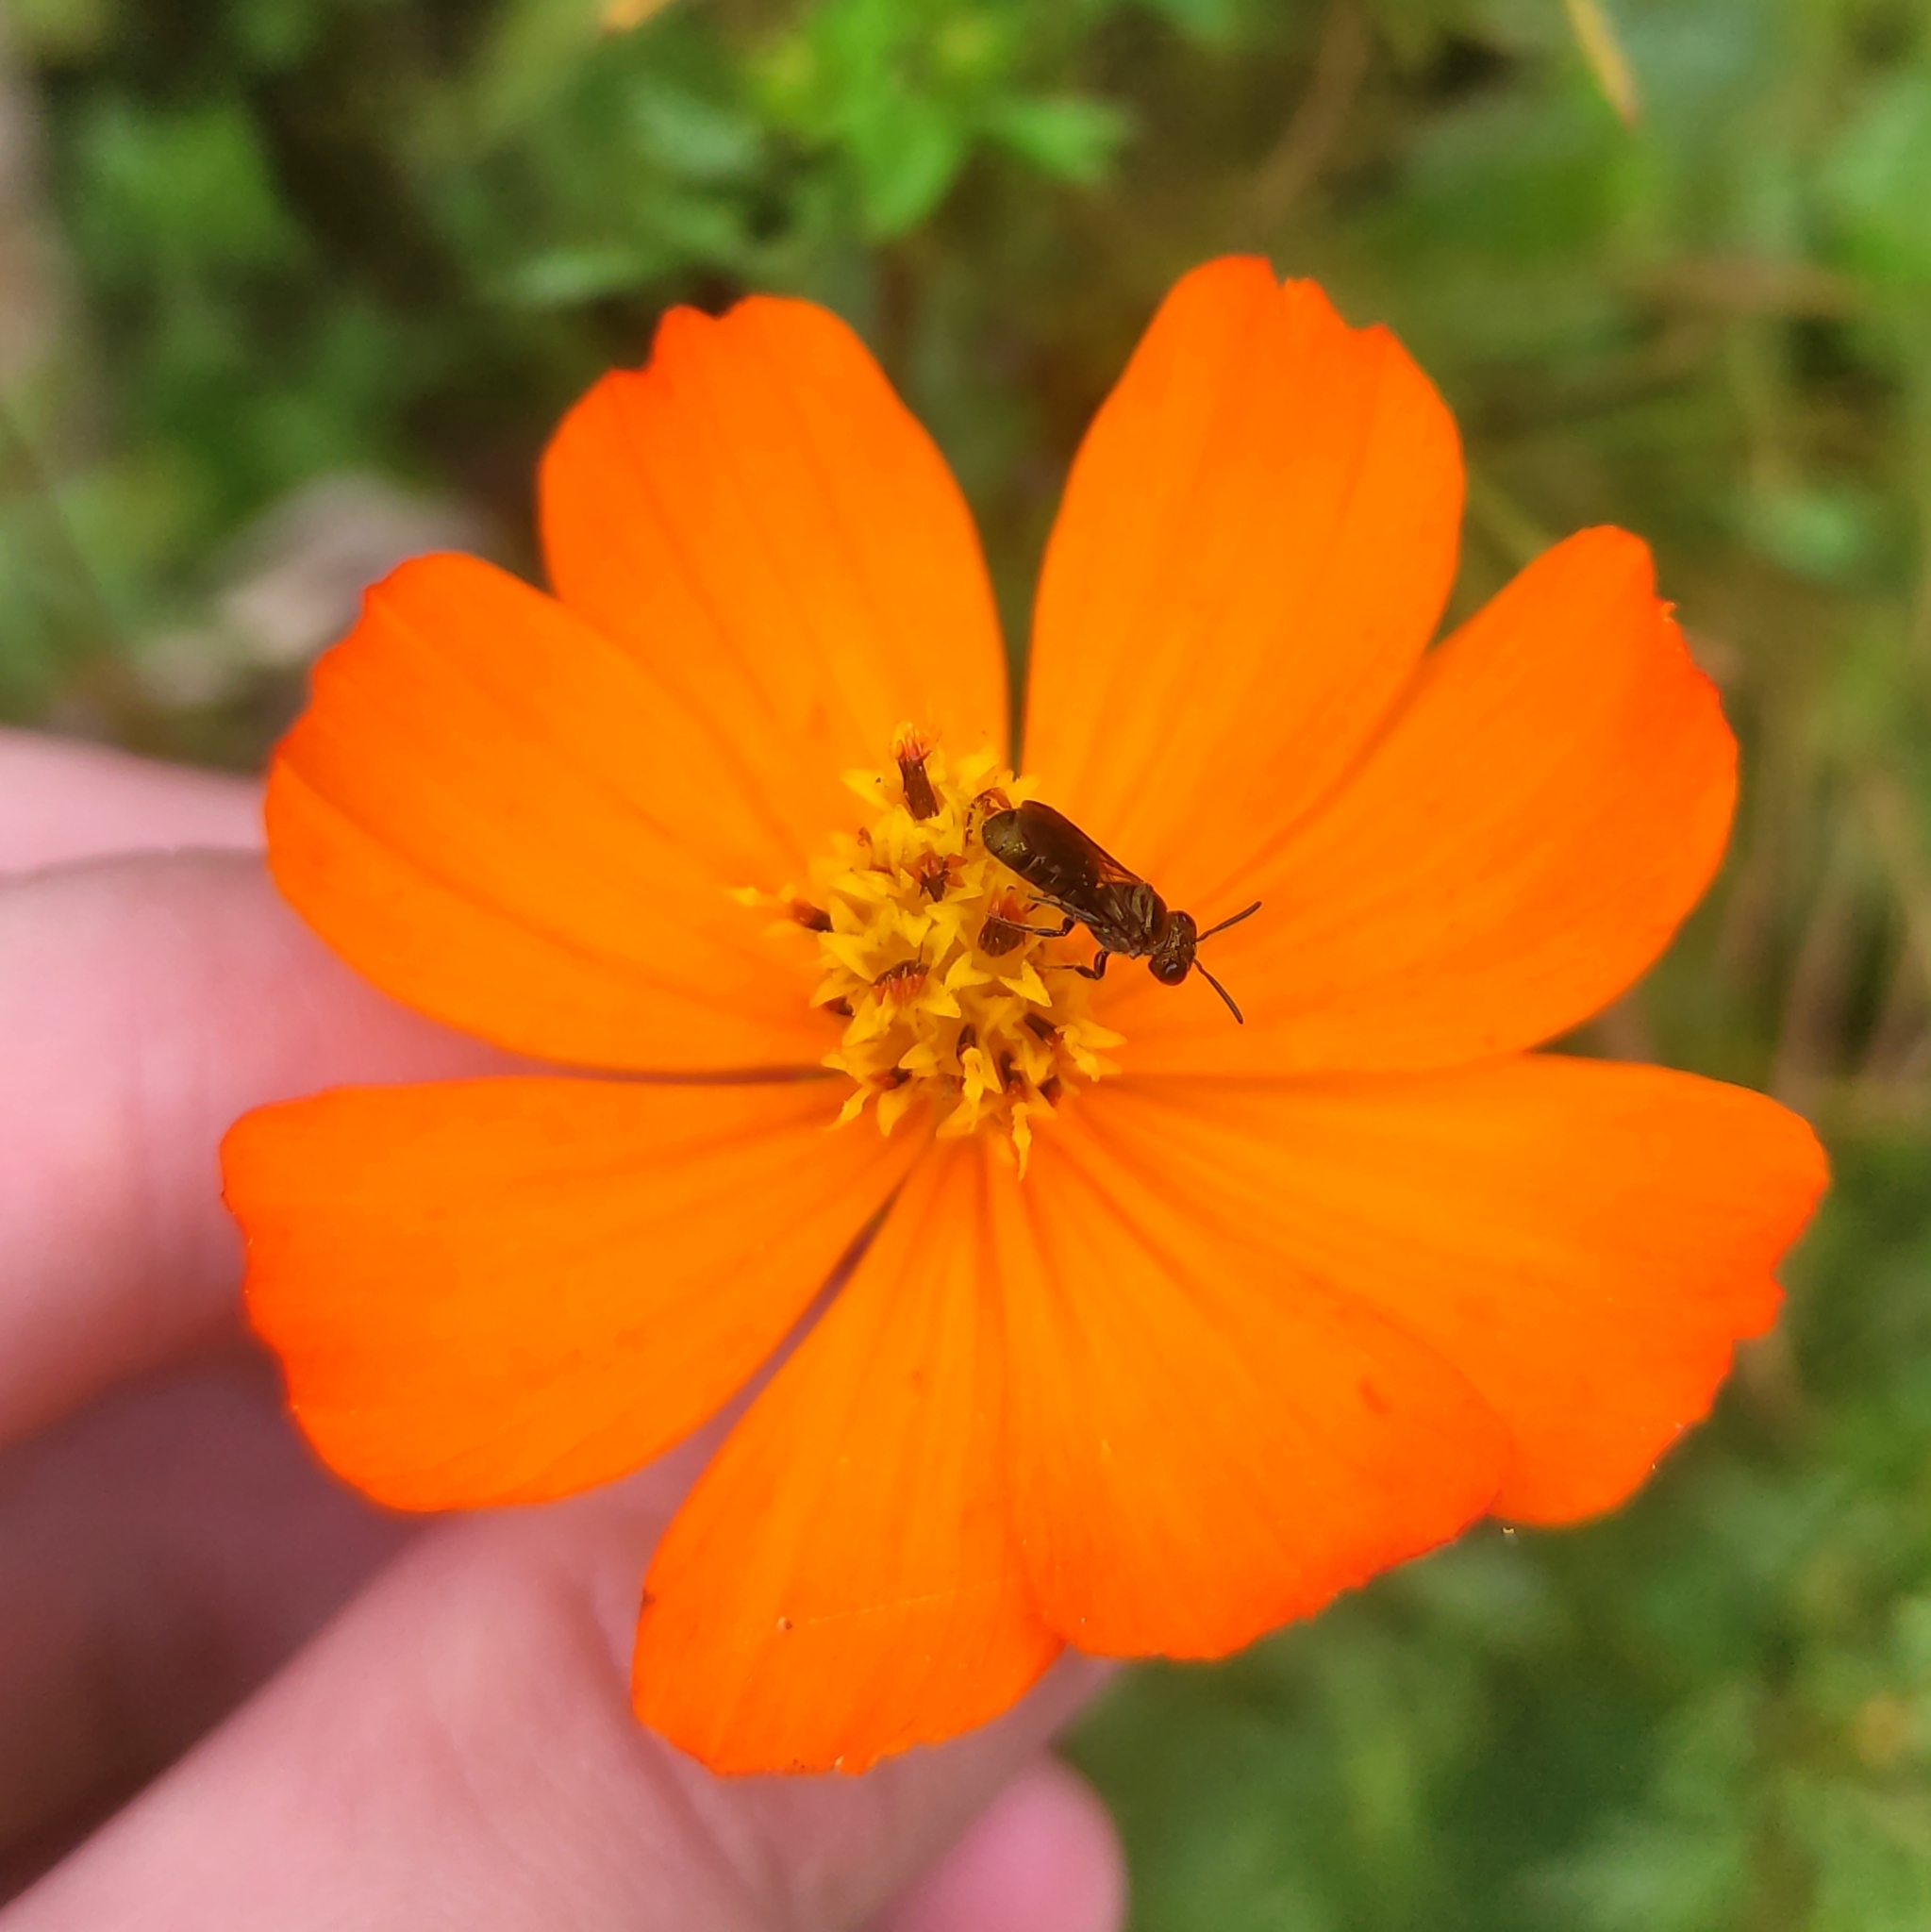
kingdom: Plantae
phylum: Tracheophyta
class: Magnoliopsida
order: Asterales
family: Asteraceae
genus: Cosmos
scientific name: Cosmos sulphureus
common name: Sulphur cosmos
